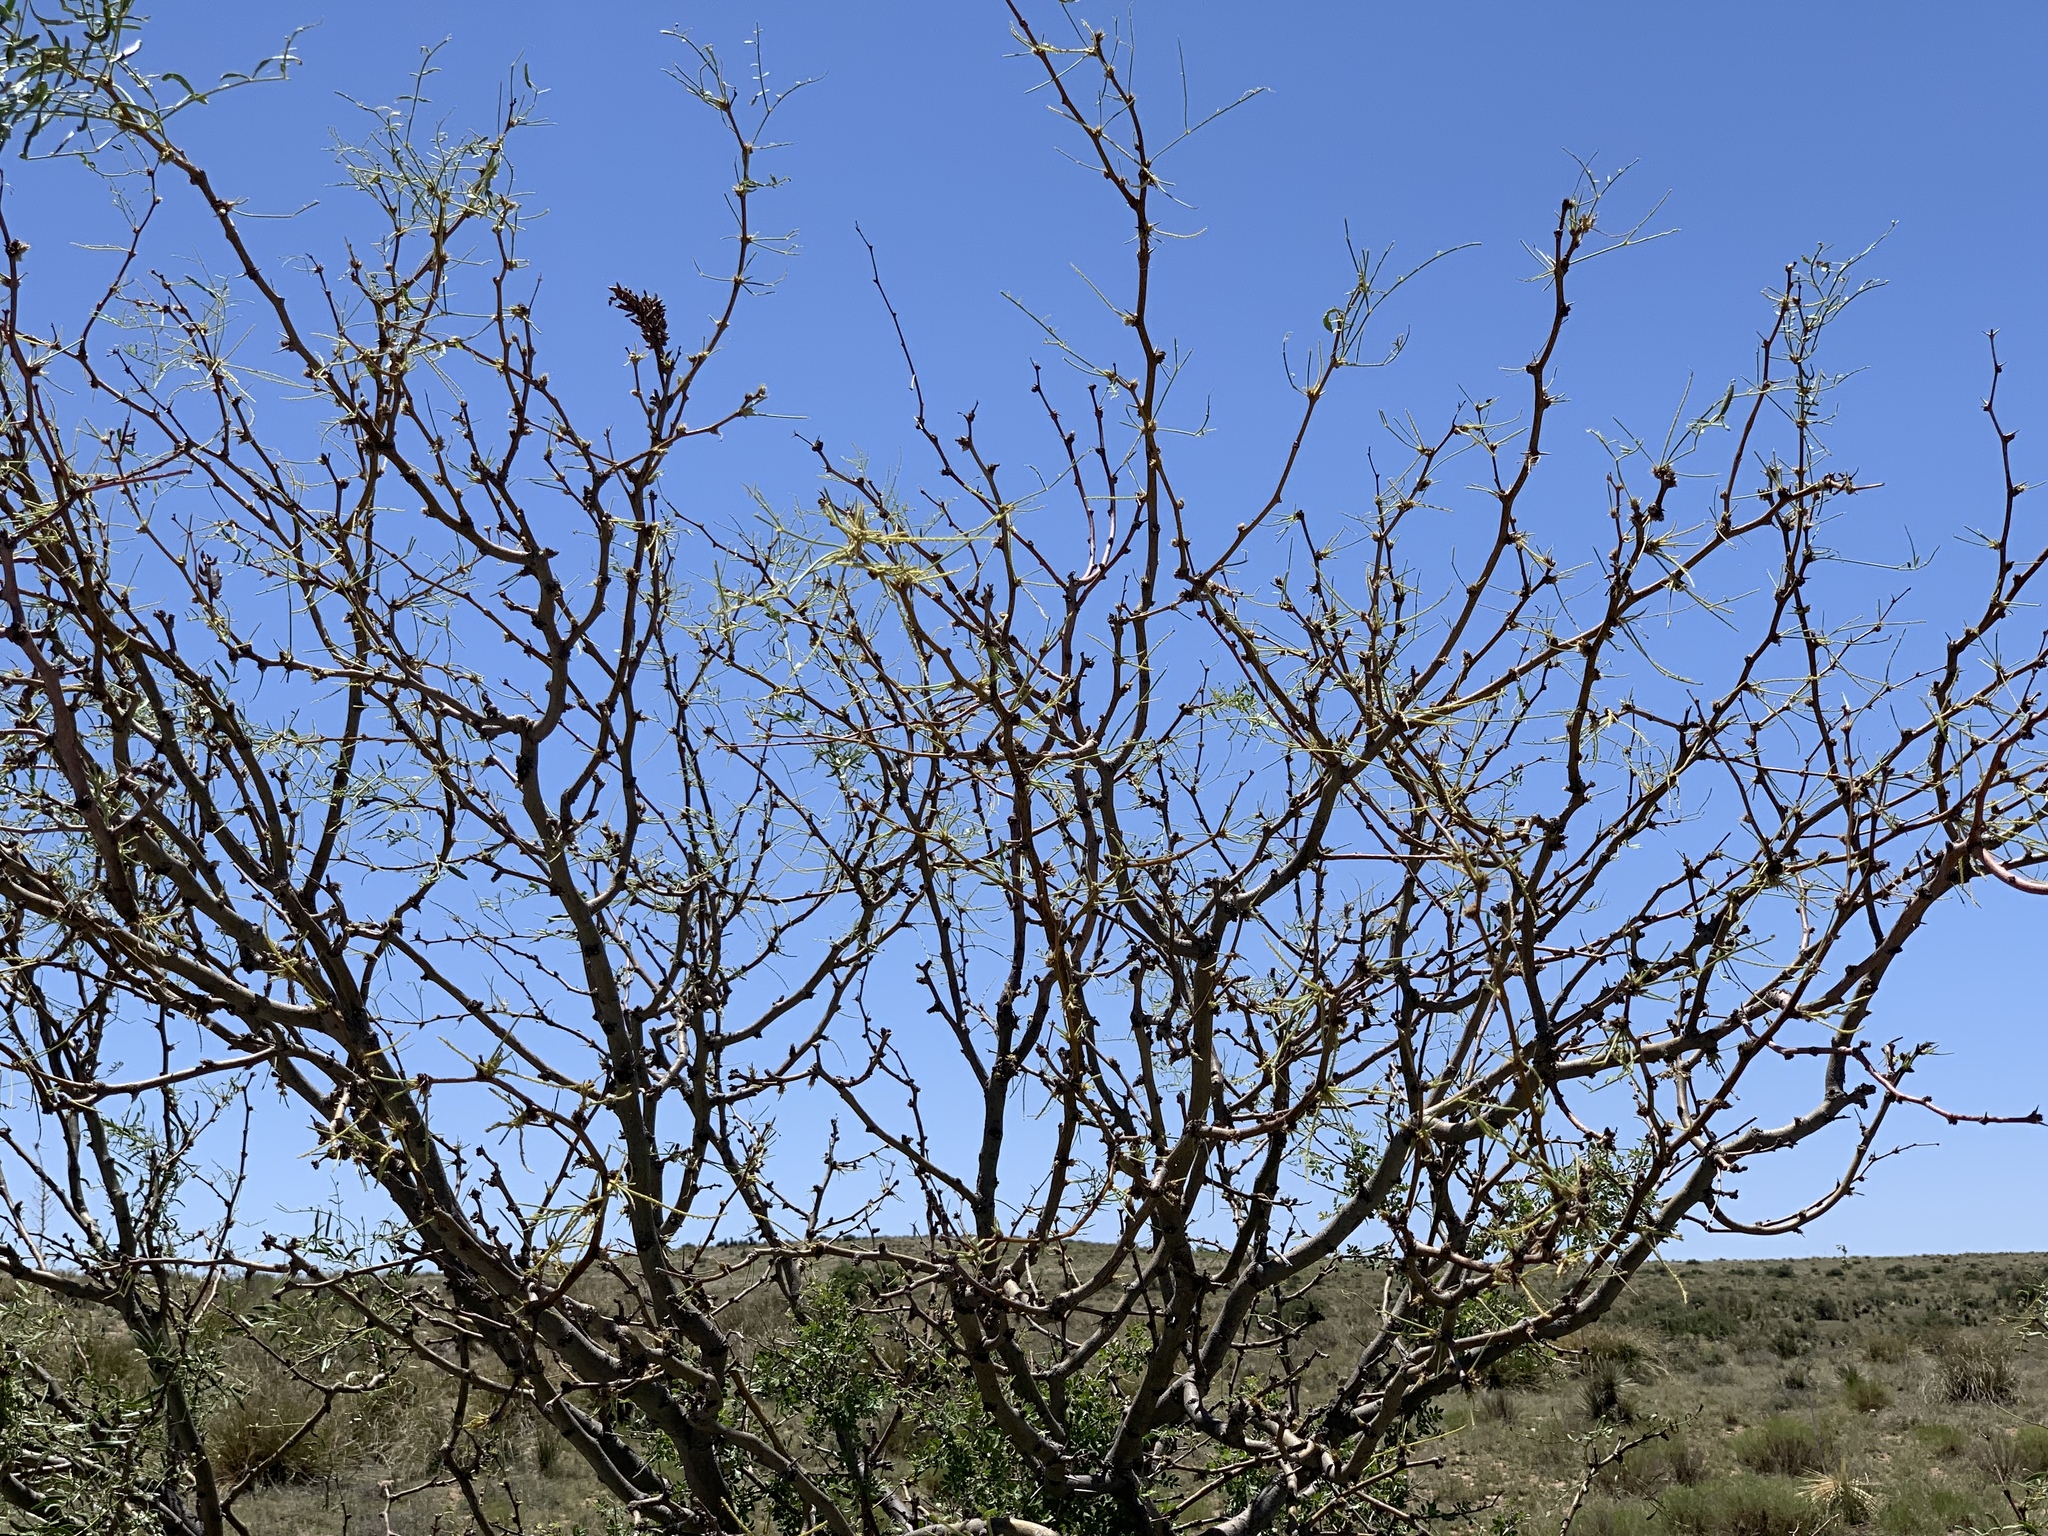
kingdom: Plantae
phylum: Tracheophyta
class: Magnoliopsida
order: Fabales
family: Fabaceae
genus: Prosopis
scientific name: Prosopis glandulosa
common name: Honey mesquite
